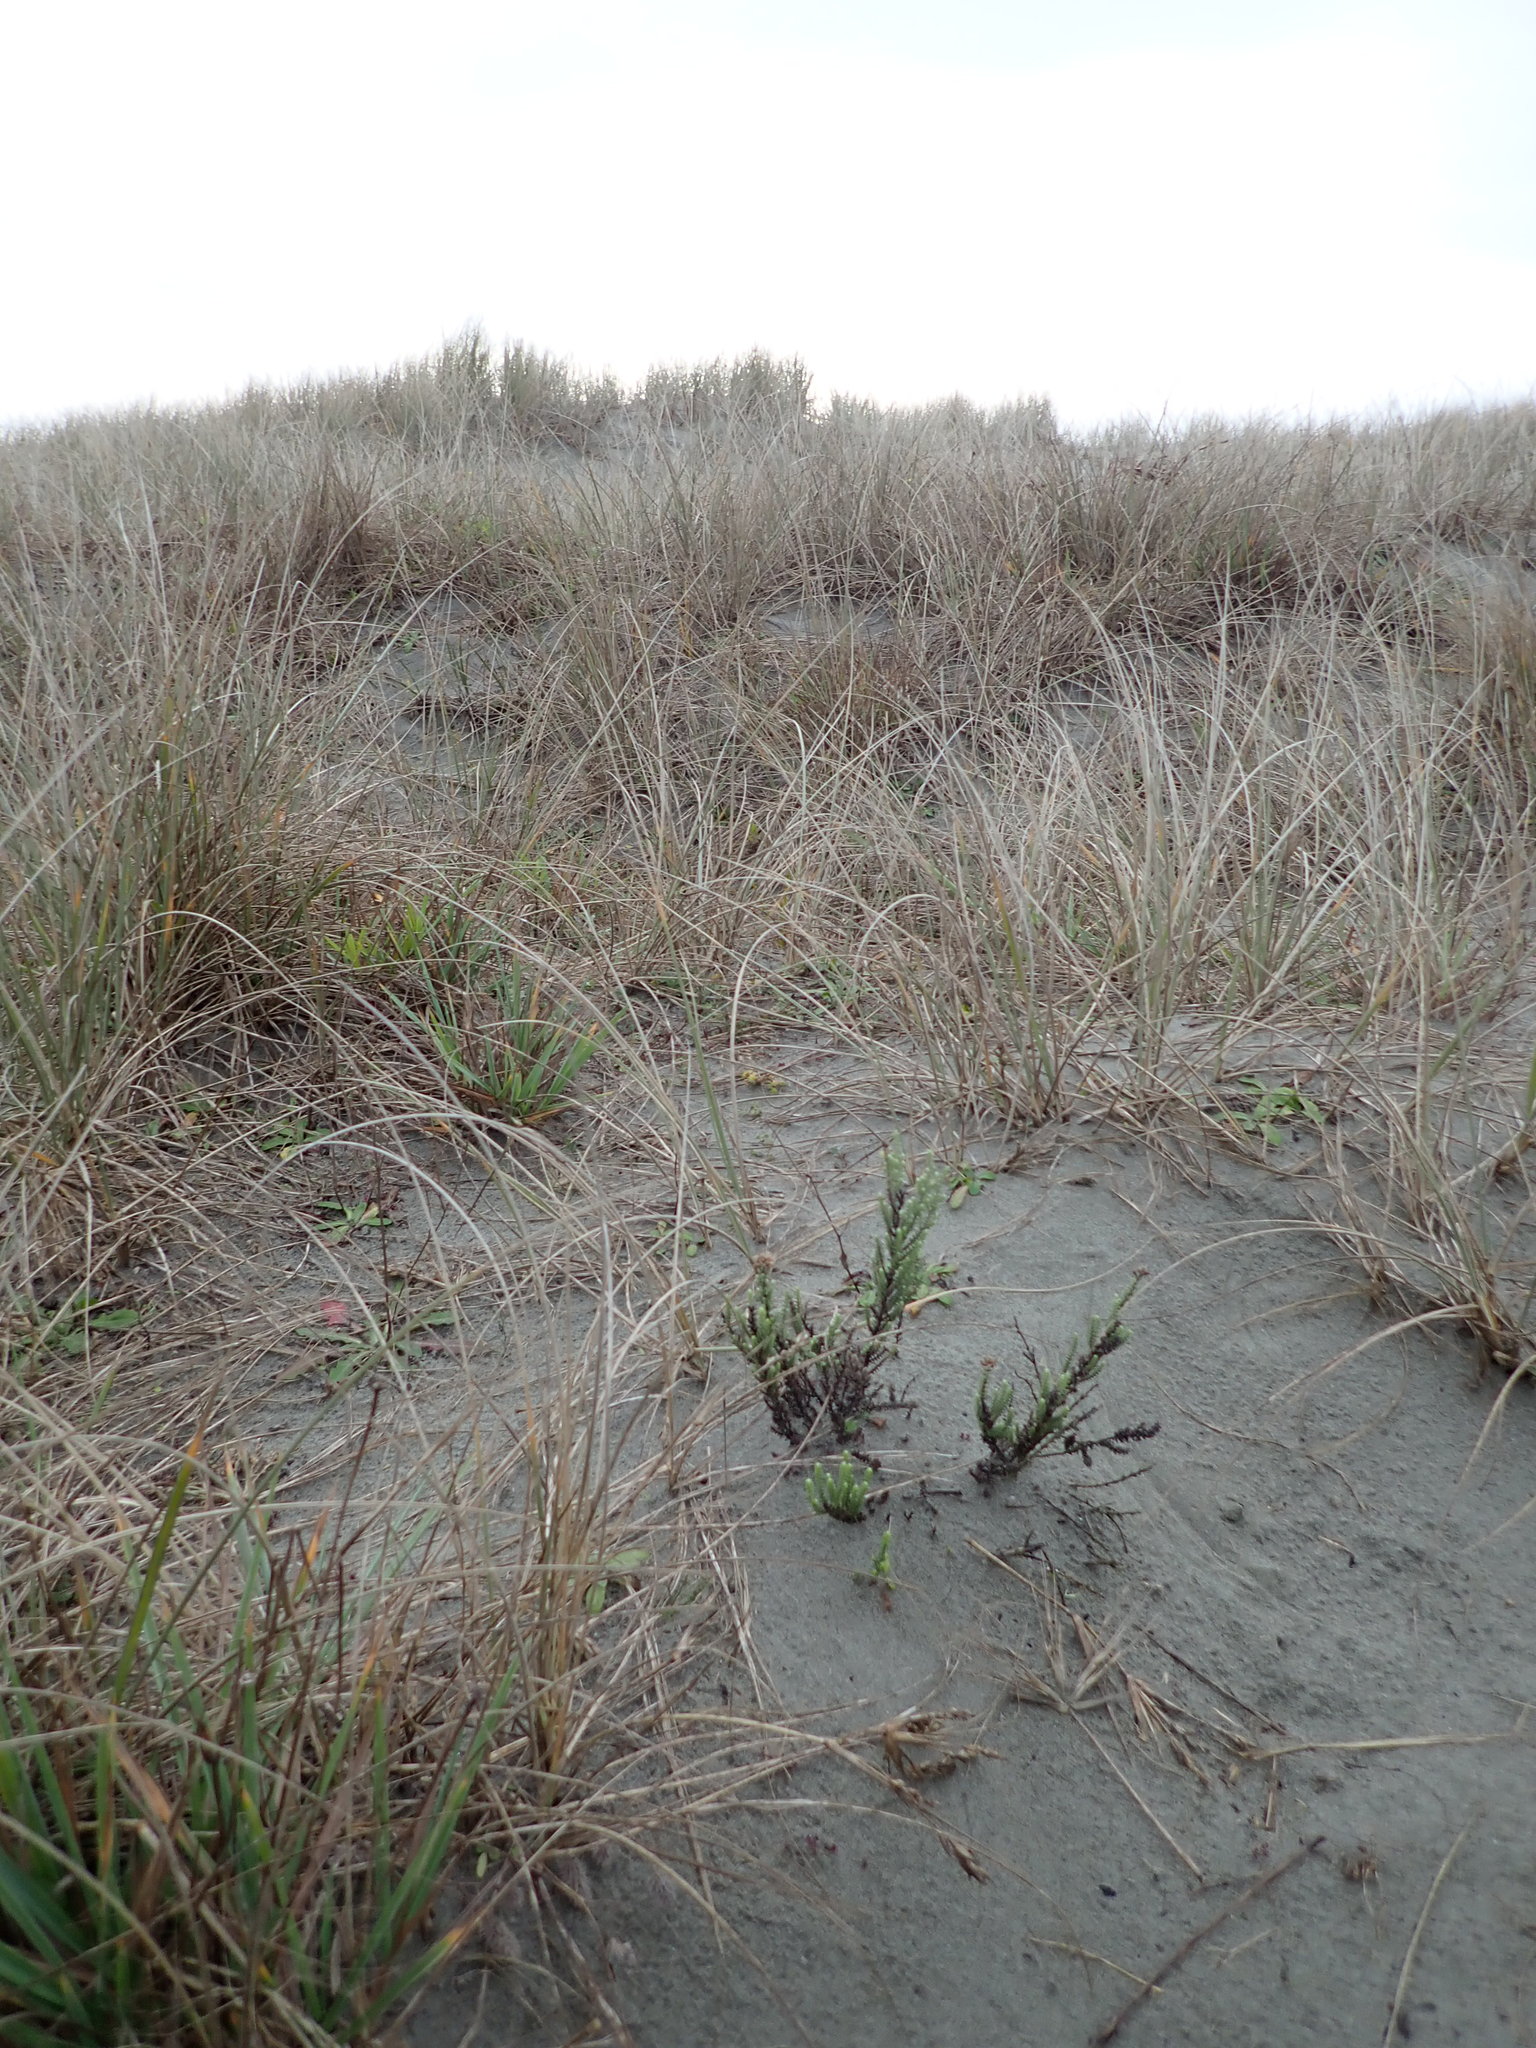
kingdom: Plantae
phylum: Tracheophyta
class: Magnoliopsida
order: Asterales
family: Asteraceae
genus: Ozothamnus
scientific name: Ozothamnus leptophyllus
